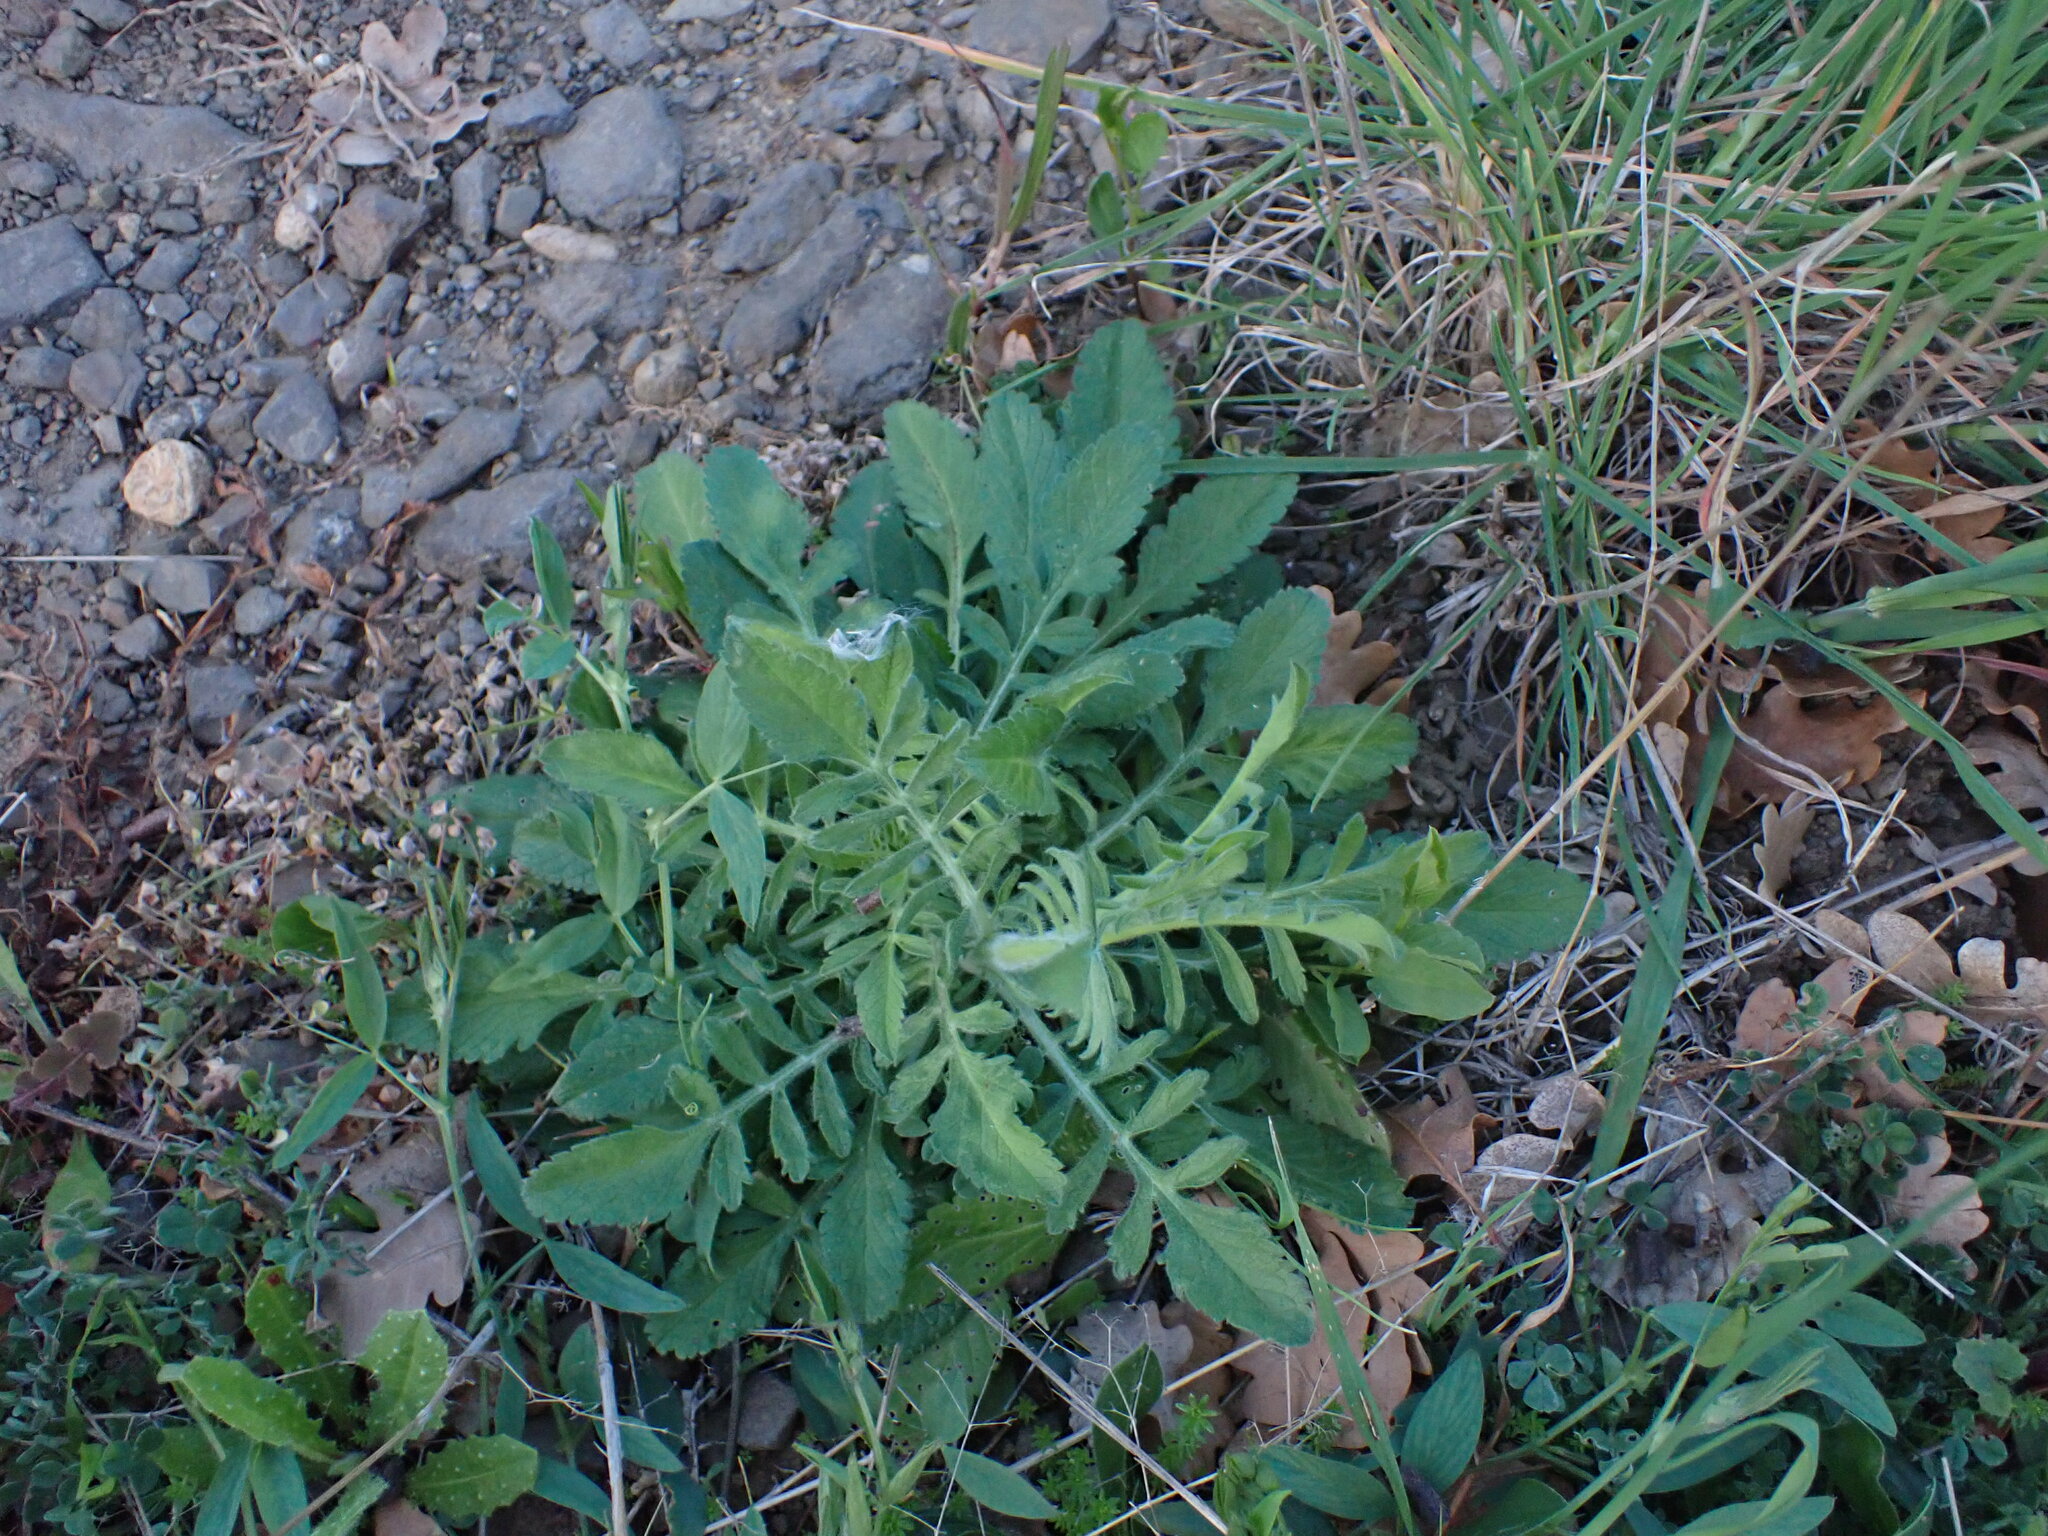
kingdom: Plantae
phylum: Tracheophyta
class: Magnoliopsida
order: Dipsacales
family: Caprifoliaceae
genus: Sixalix
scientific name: Sixalix atropurpurea
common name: Sweet scabious
